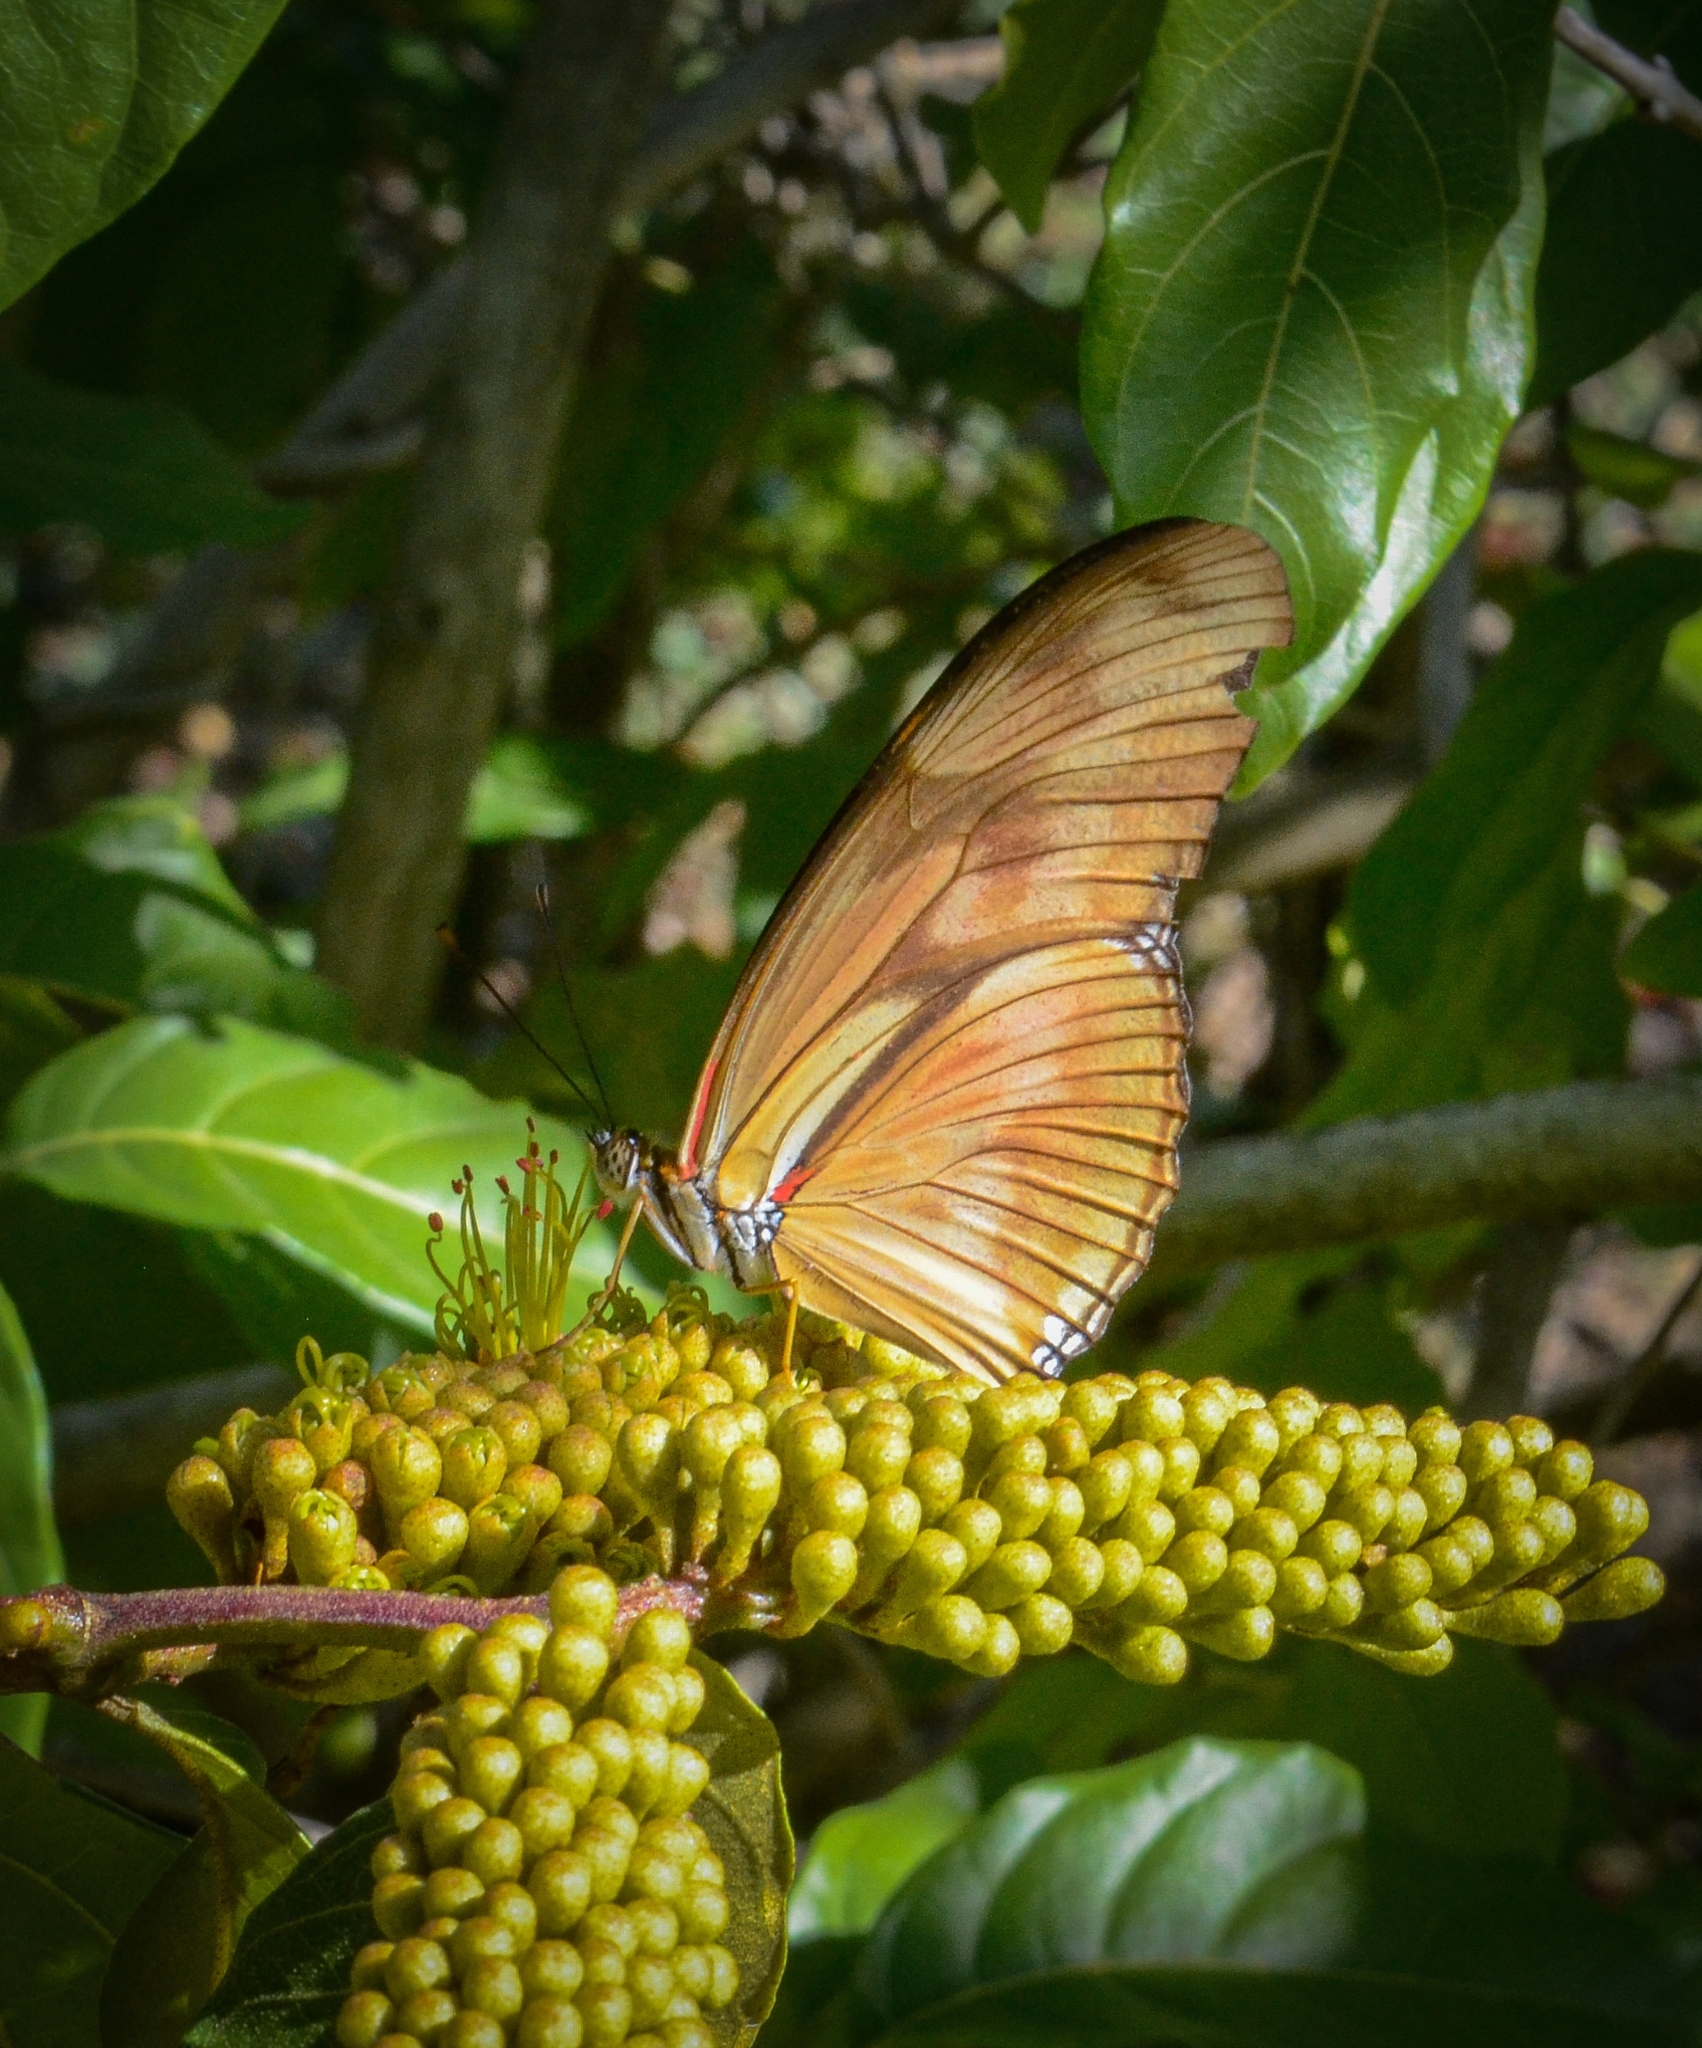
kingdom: Animalia
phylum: Arthropoda
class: Insecta
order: Lepidoptera
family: Nymphalidae
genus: Dryas
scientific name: Dryas iulia
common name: Flambeau
